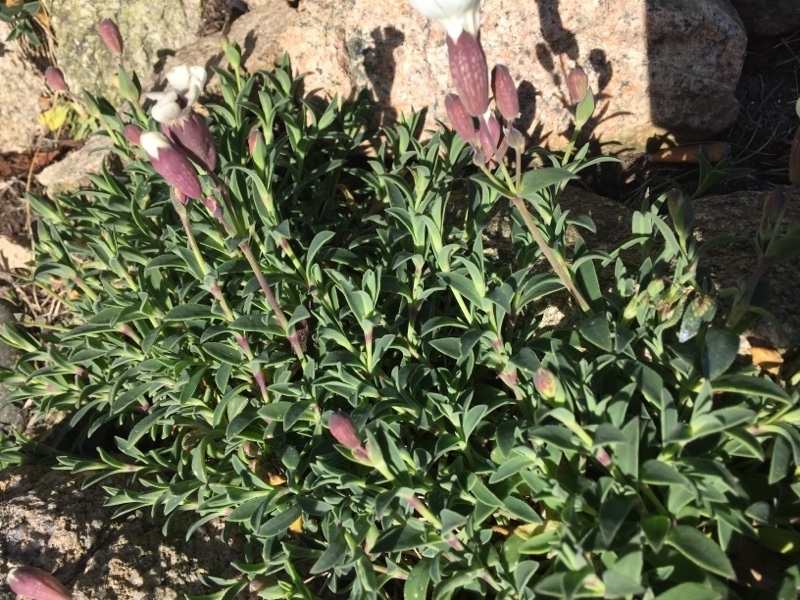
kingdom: Plantae
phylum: Tracheophyta
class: Magnoliopsida
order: Caryophyllales
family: Caryophyllaceae
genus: Silene
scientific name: Silene uniflora
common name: Sea campion
